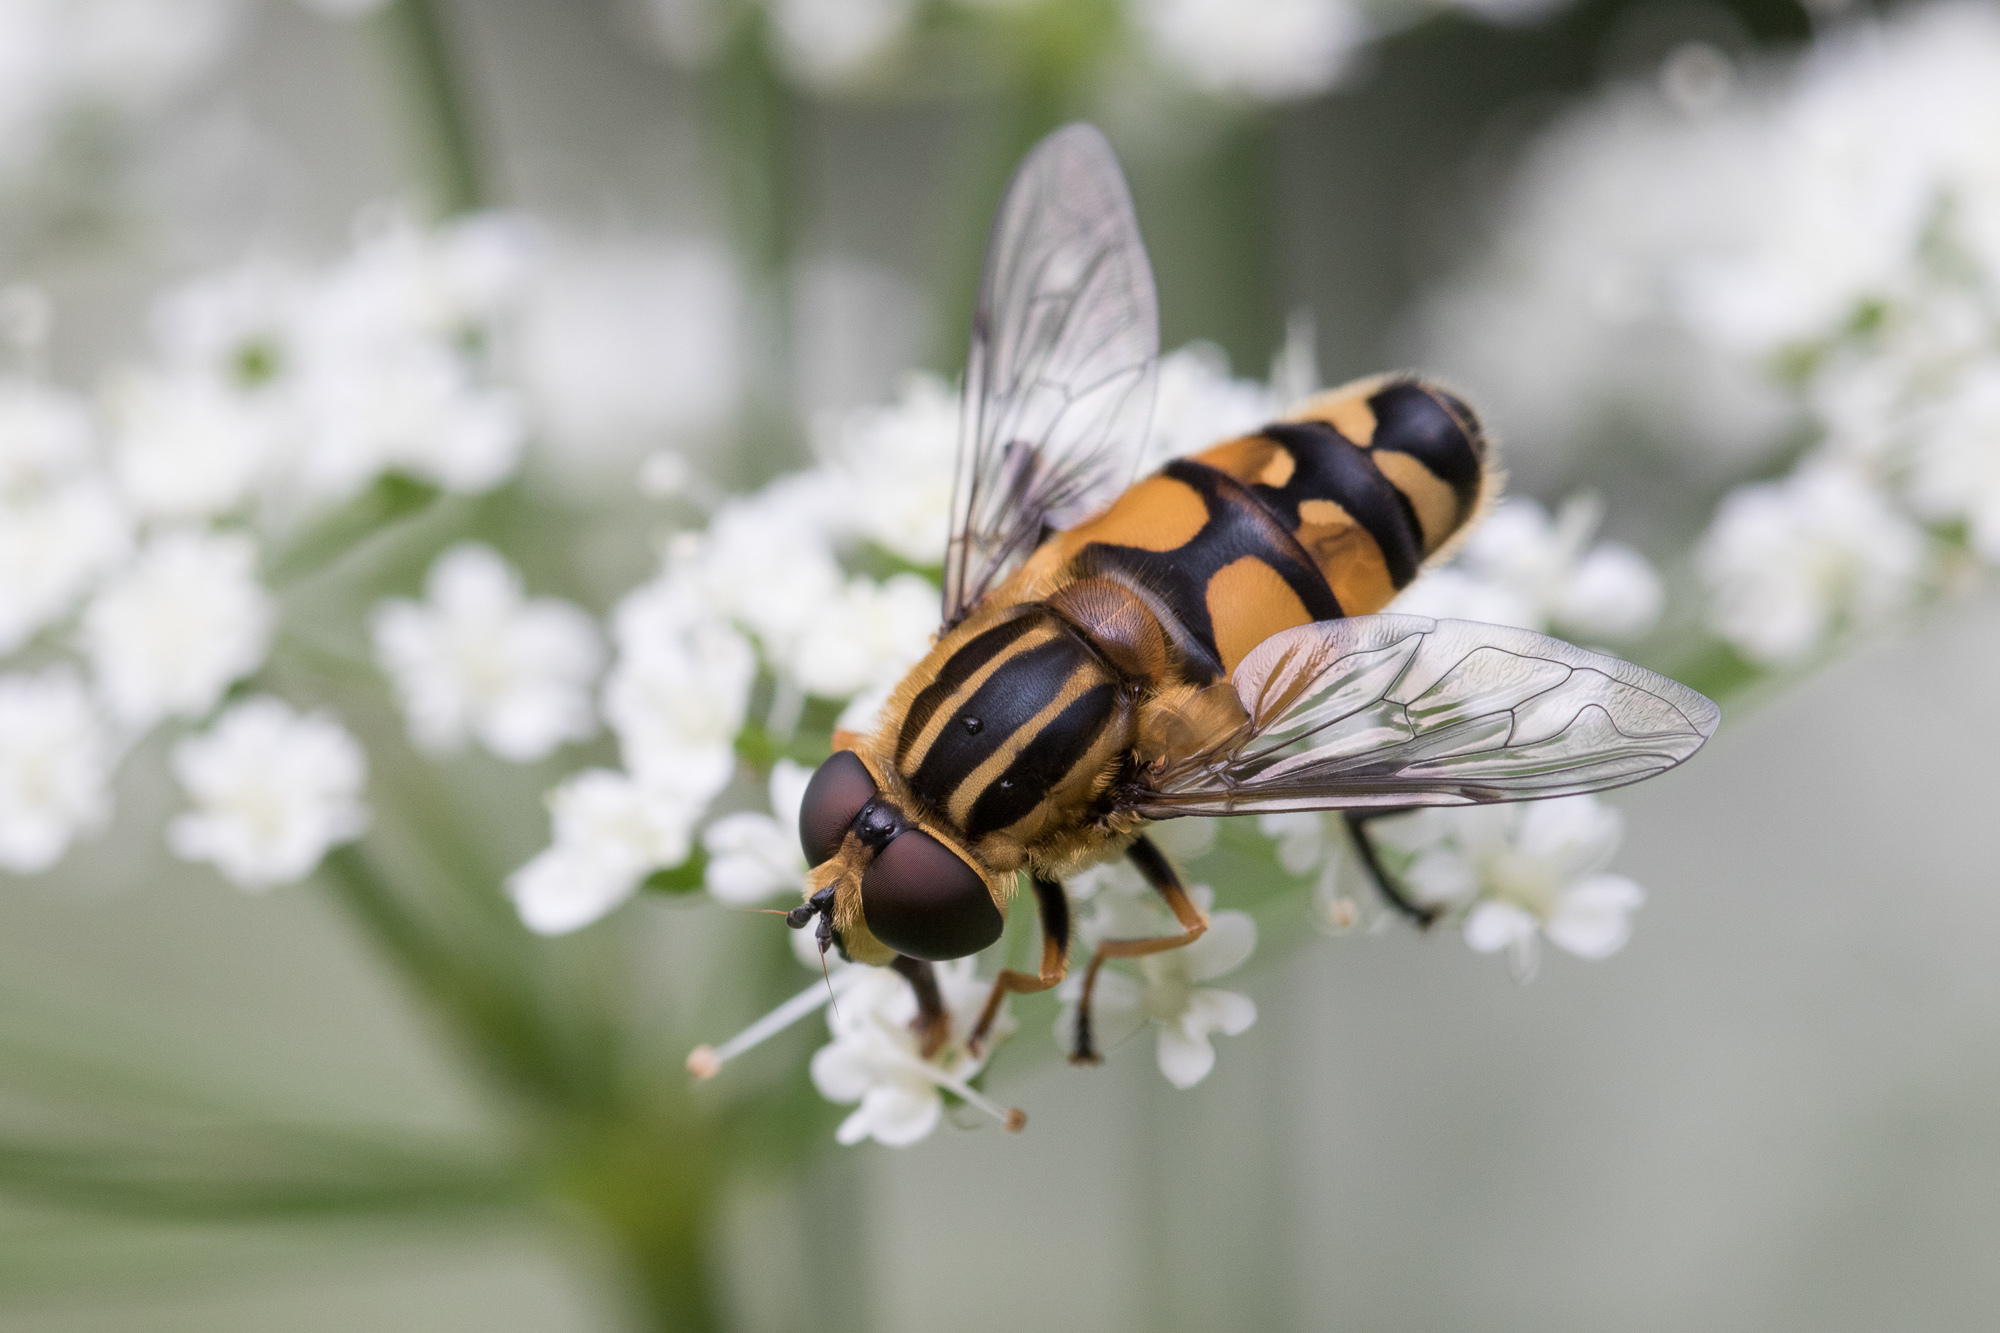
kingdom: Animalia
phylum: Arthropoda
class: Insecta
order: Diptera
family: Syrphidae
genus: Helophilus
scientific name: Helophilus affinis
